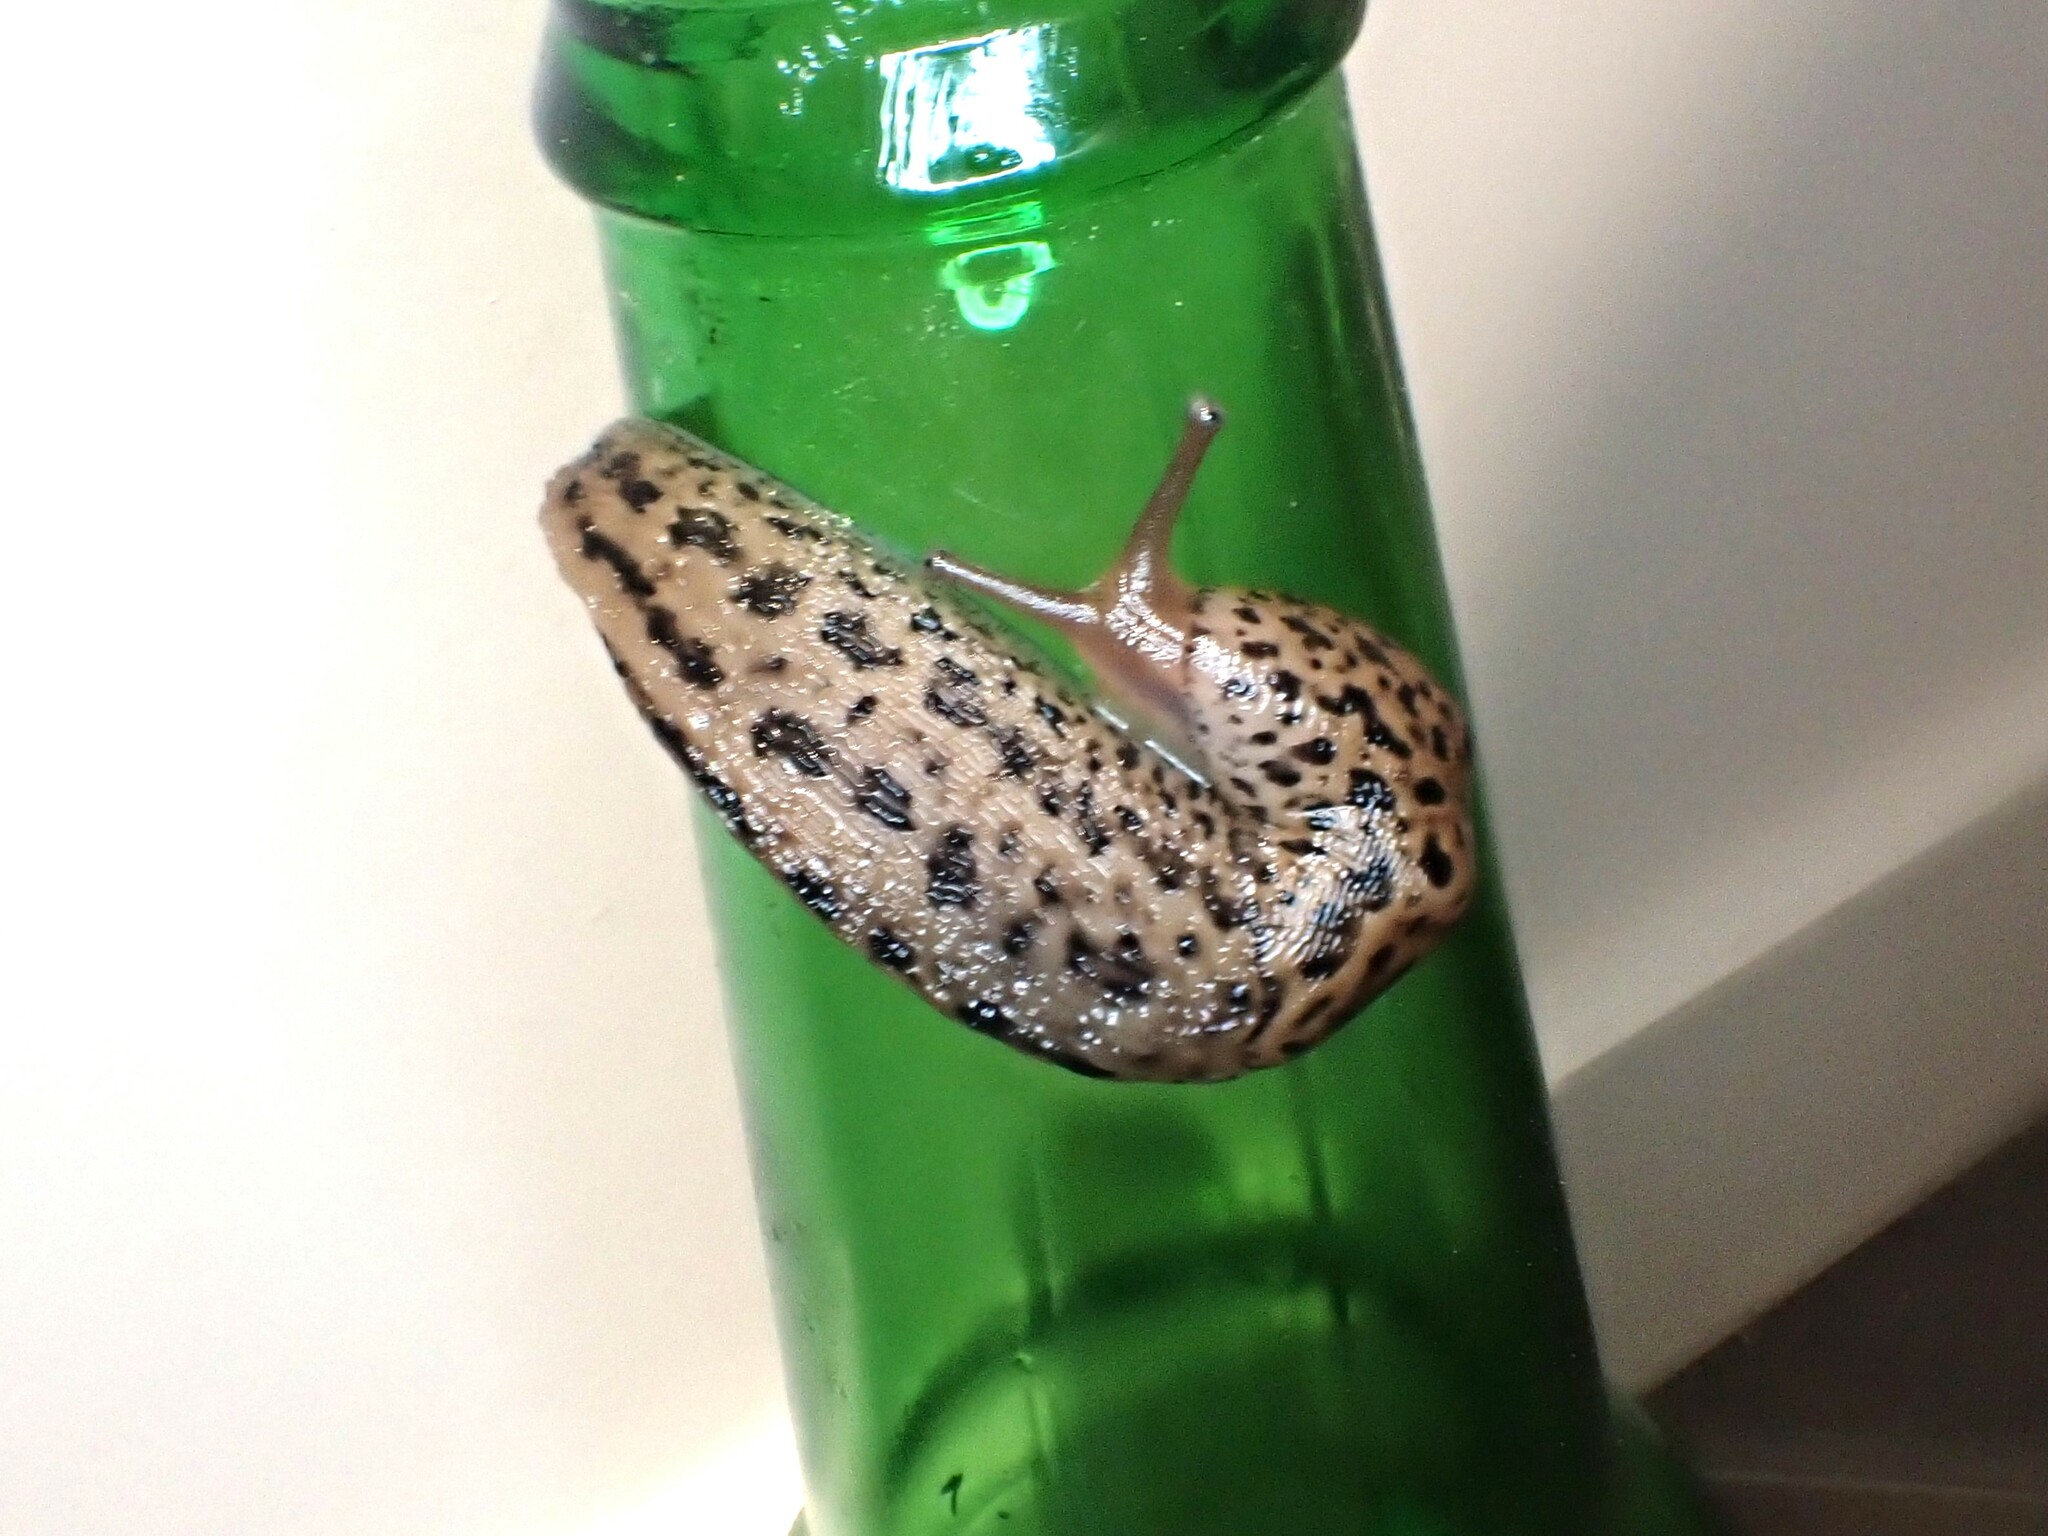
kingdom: Animalia
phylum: Mollusca
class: Gastropoda
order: Stylommatophora
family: Limacidae
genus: Limax
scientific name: Limax maximus
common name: Great grey slug
